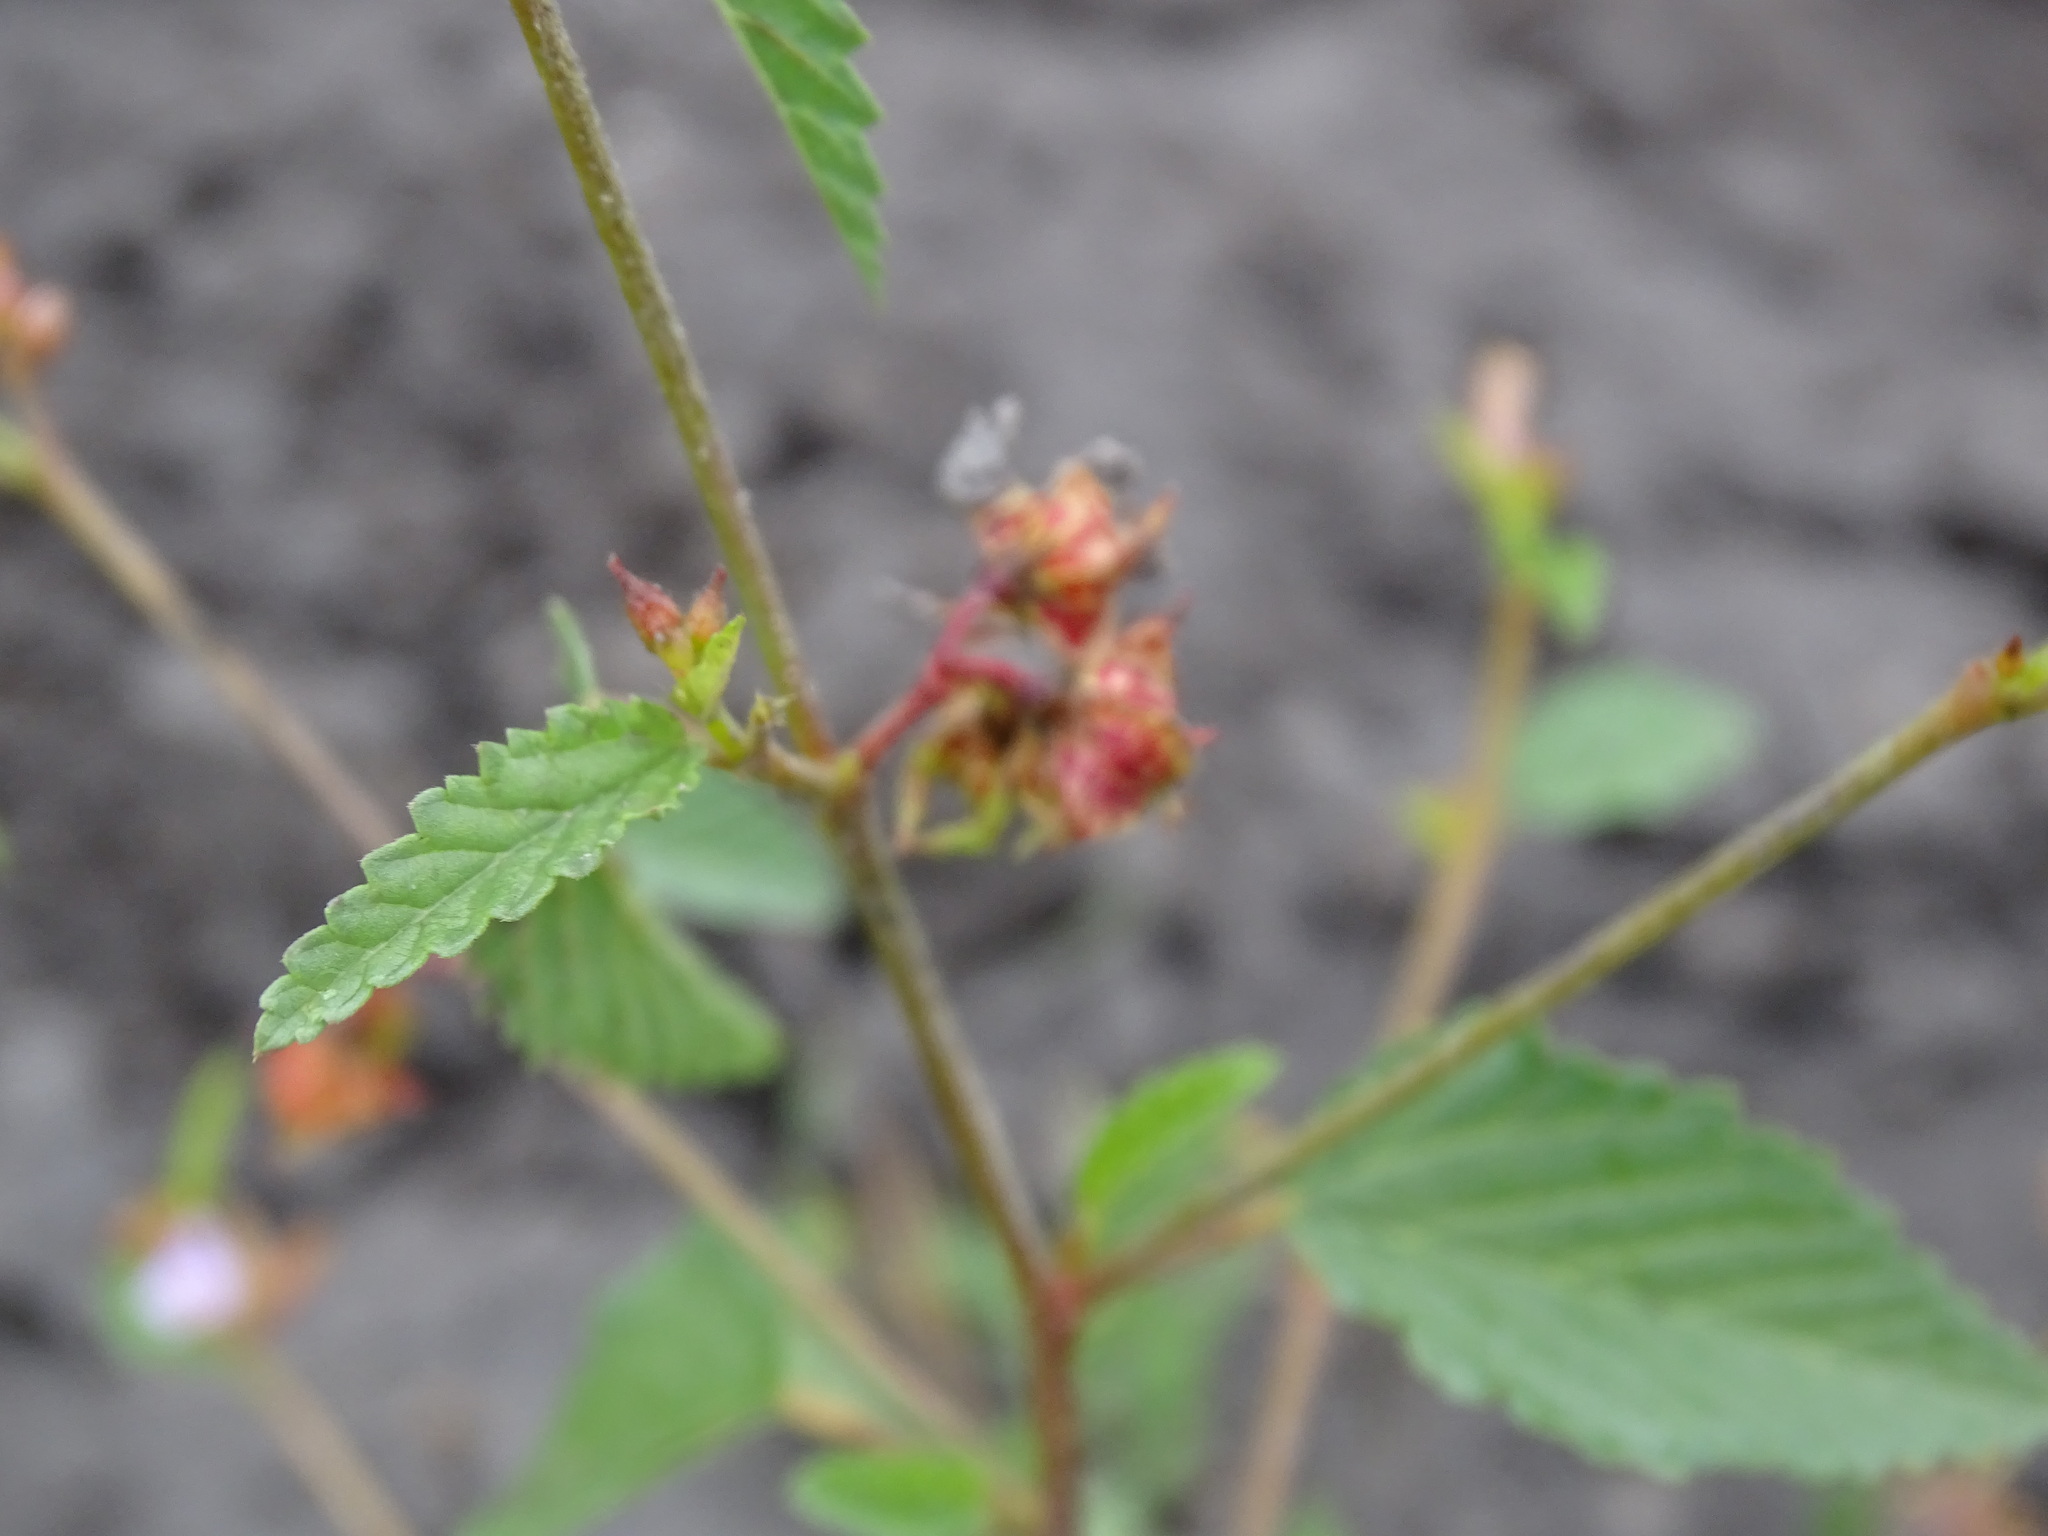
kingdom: Plantae
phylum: Tracheophyta
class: Magnoliopsida
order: Malvales
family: Malvaceae
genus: Melochia
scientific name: Melochia pyramidata
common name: Pyramidflower
